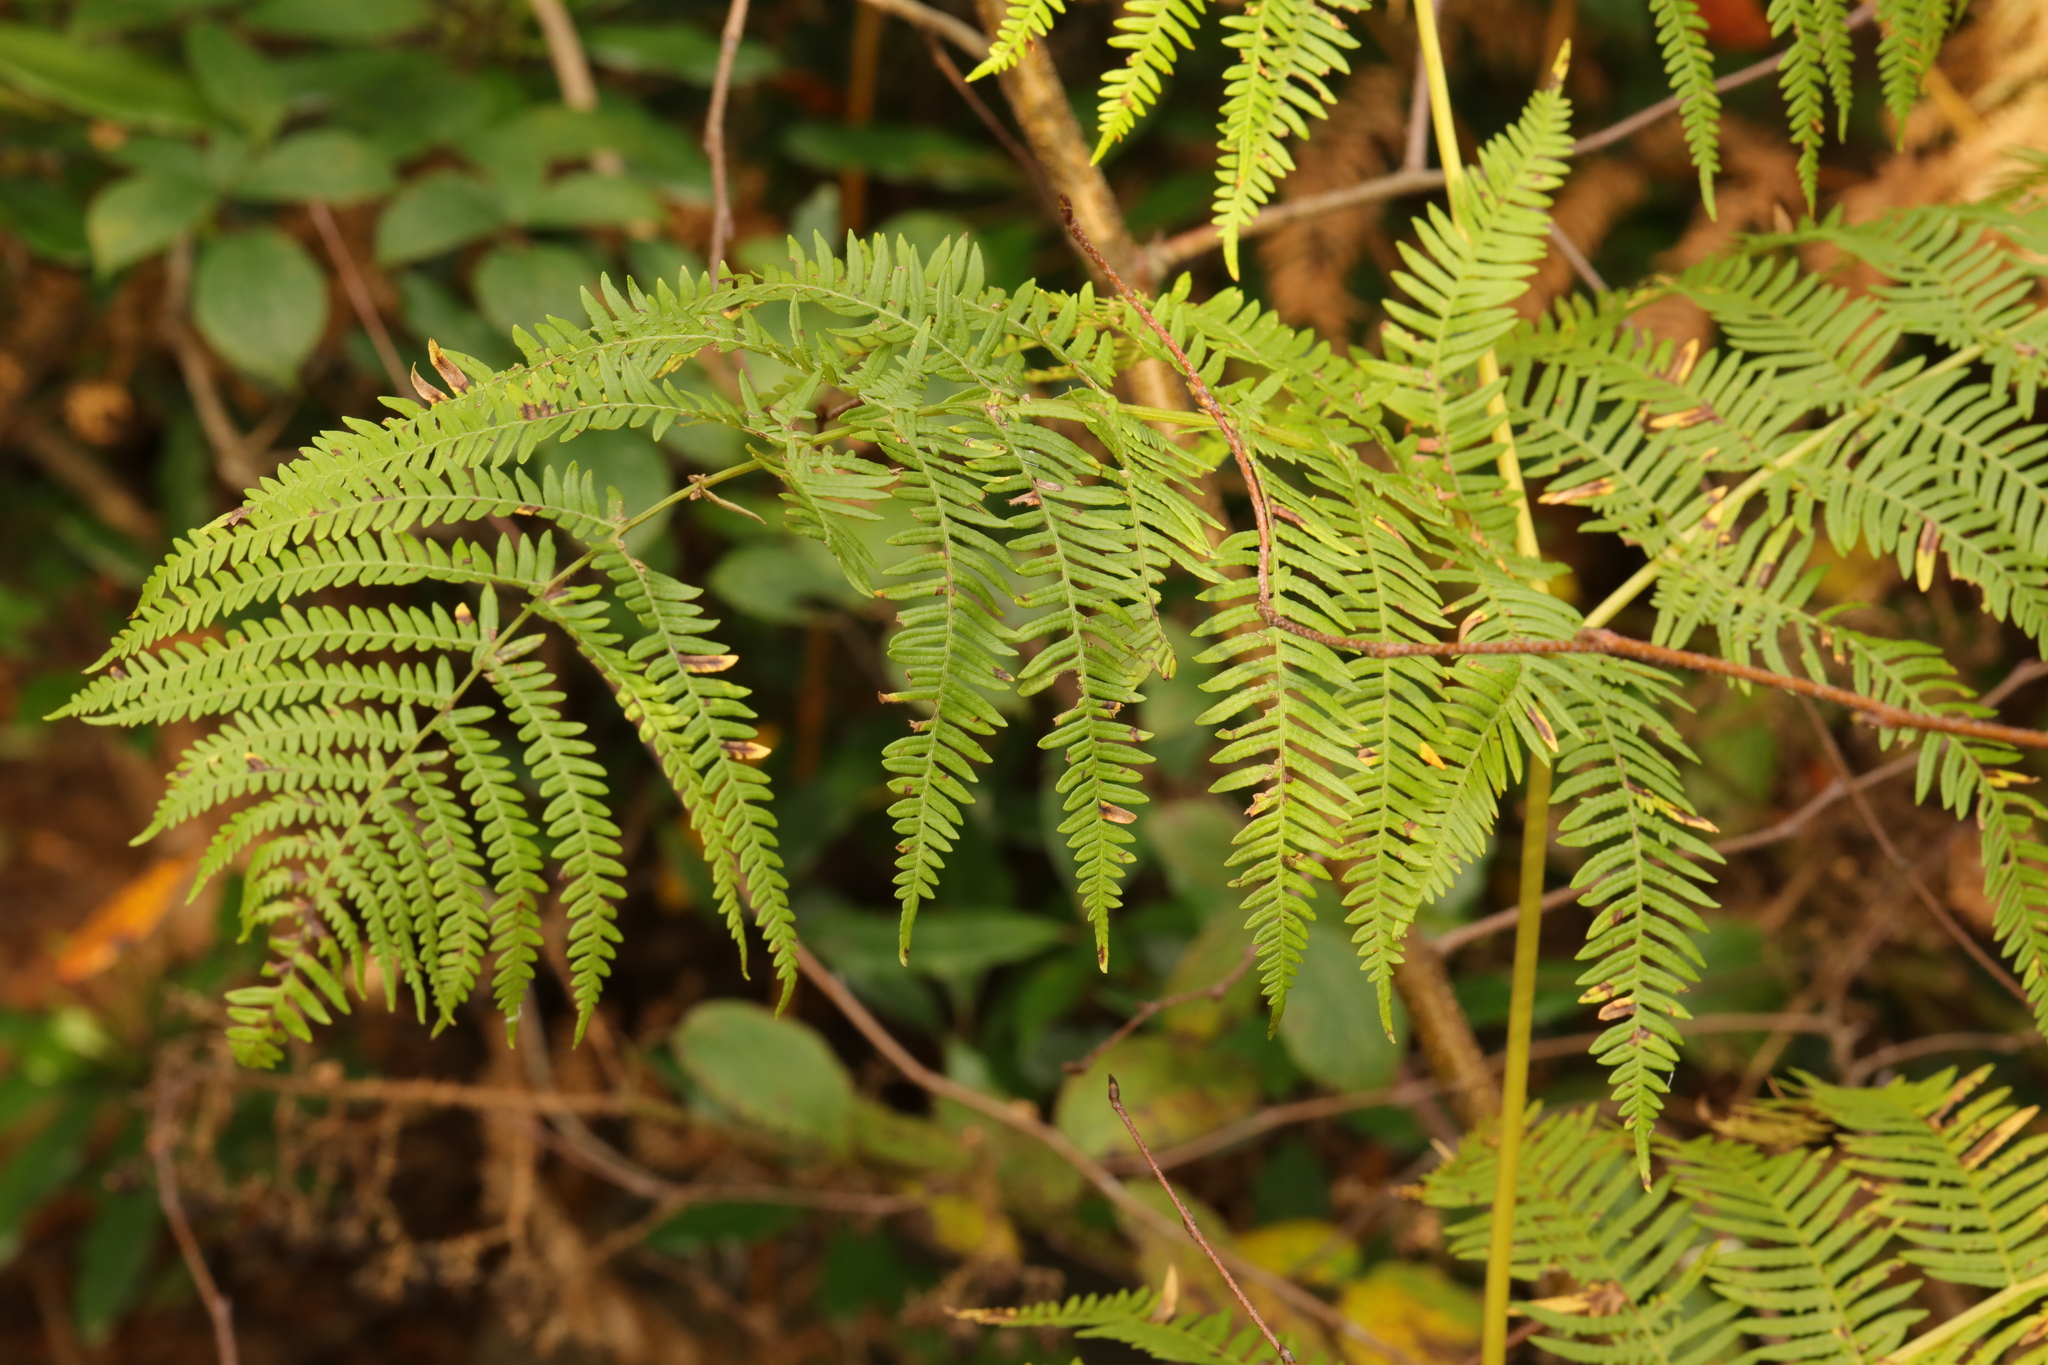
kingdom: Plantae
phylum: Tracheophyta
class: Polypodiopsida
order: Polypodiales
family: Dennstaedtiaceae
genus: Pteridium
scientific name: Pteridium aquilinum
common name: Bracken
